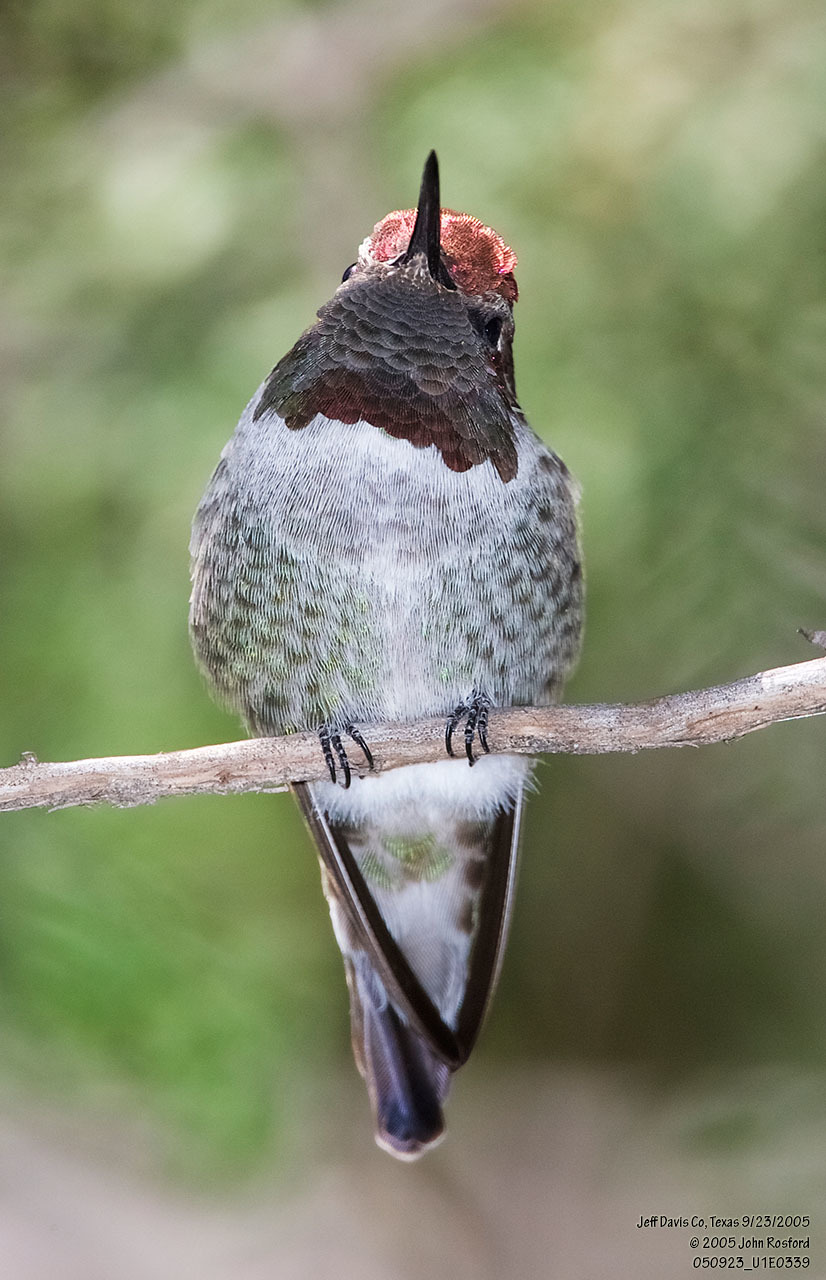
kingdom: Animalia
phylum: Chordata
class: Aves
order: Apodiformes
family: Trochilidae
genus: Calypte
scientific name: Calypte anna
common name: Anna's hummingbird
